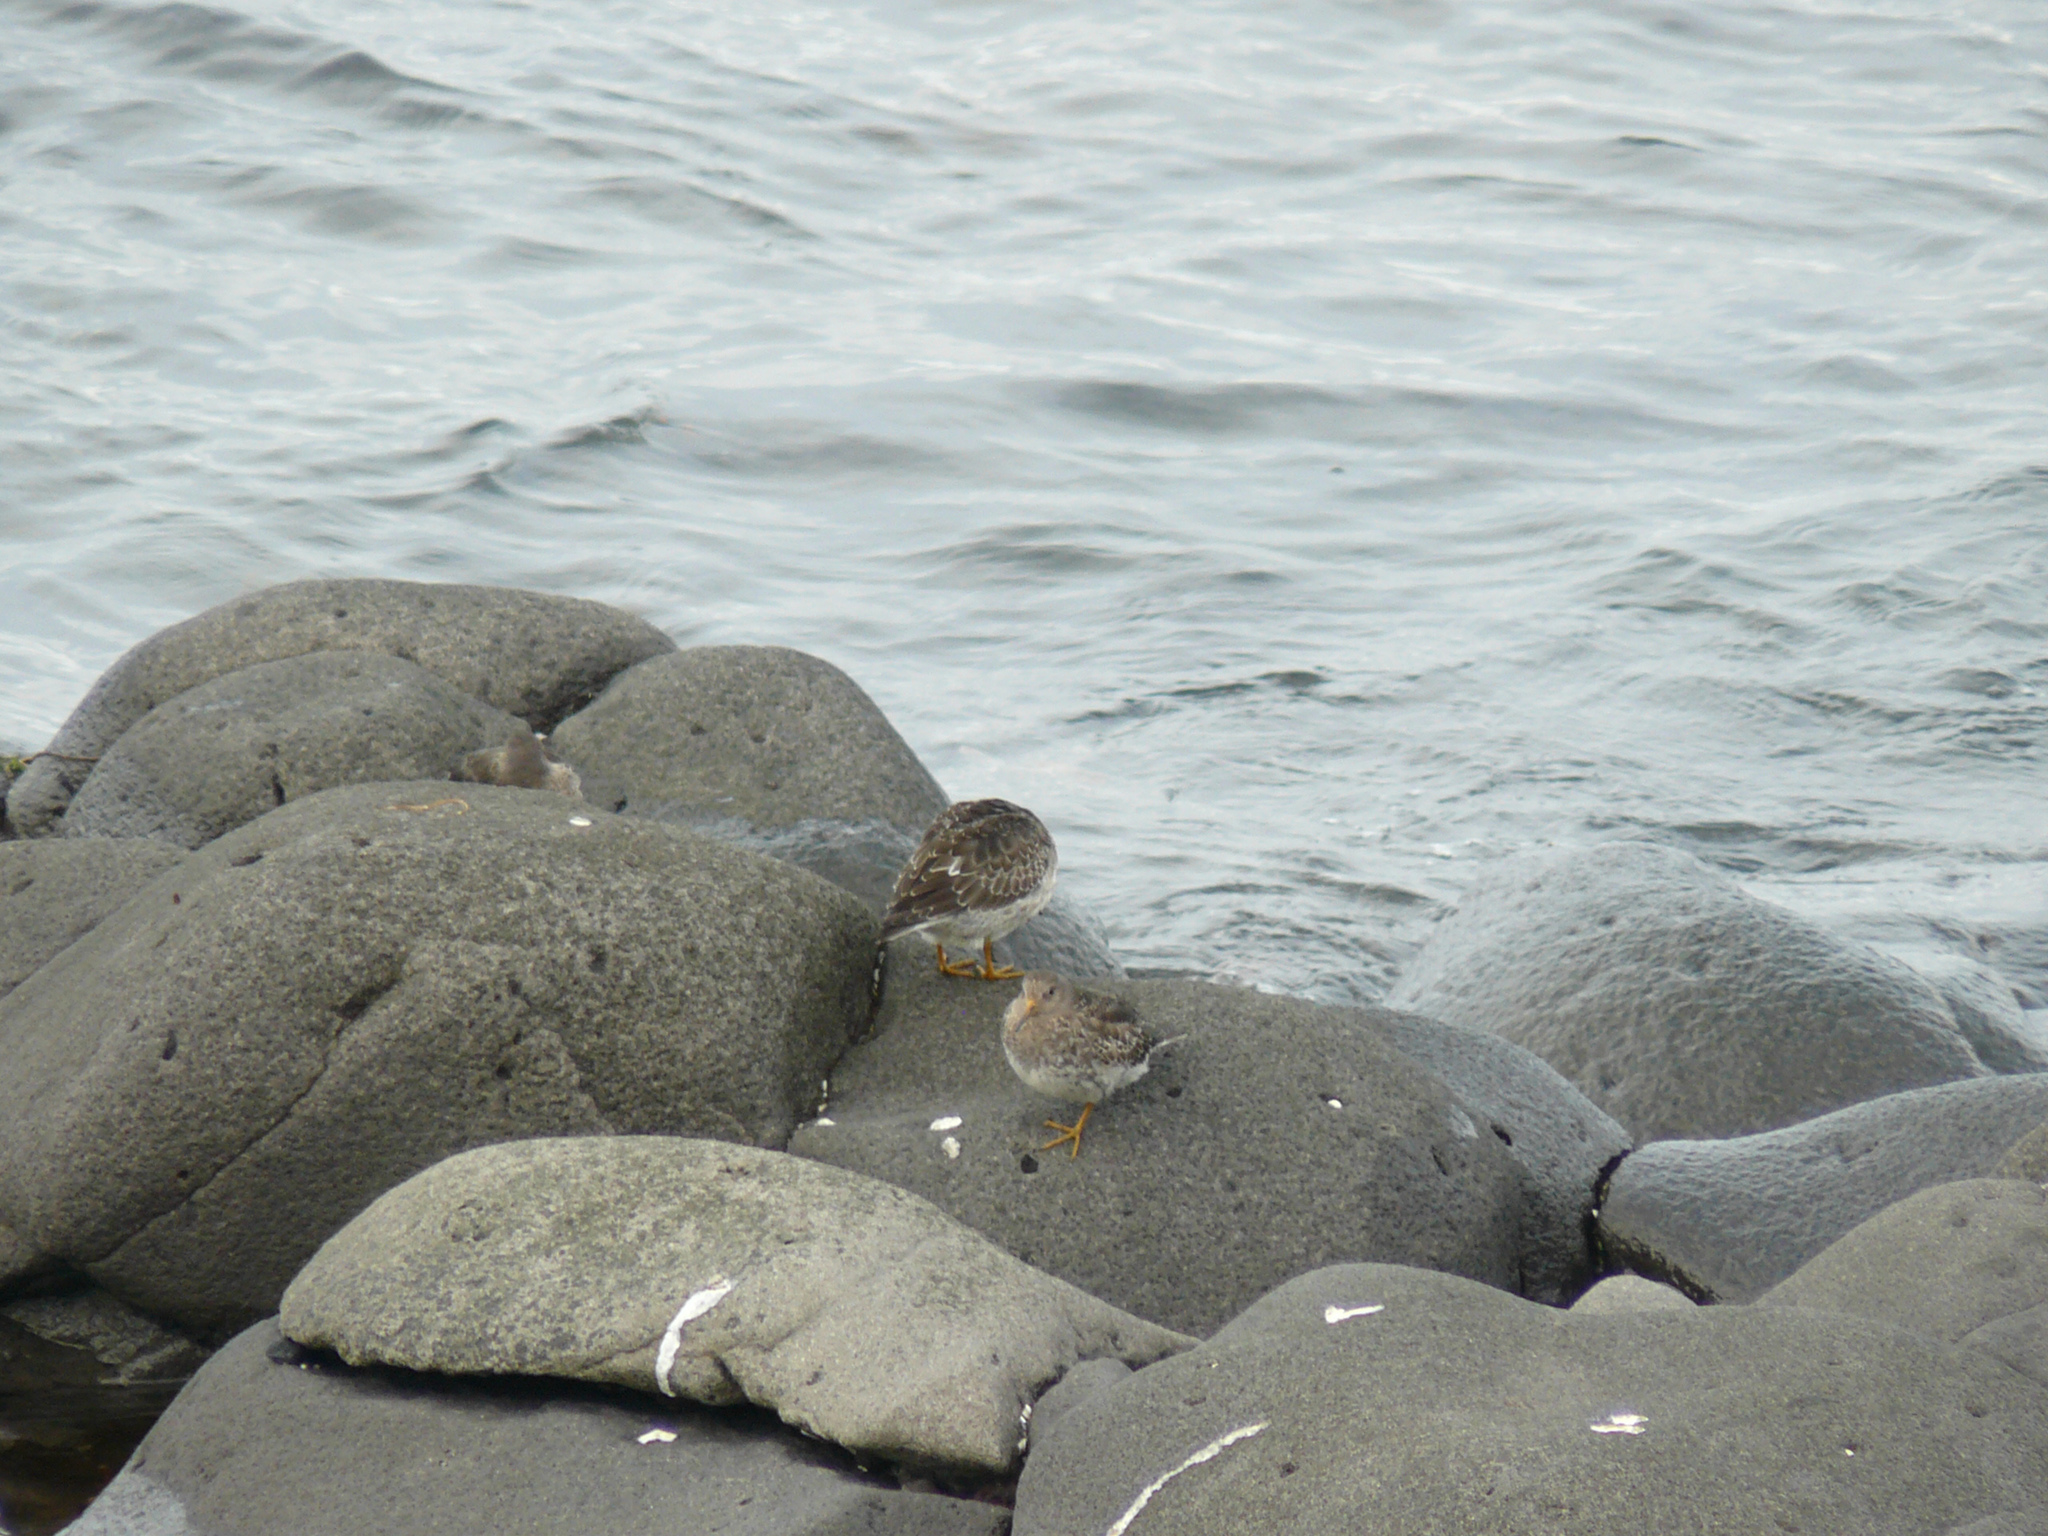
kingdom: Animalia
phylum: Chordata
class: Aves
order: Charadriiformes
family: Scolopacidae
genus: Calidris
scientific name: Calidris maritima
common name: Purple sandpiper
